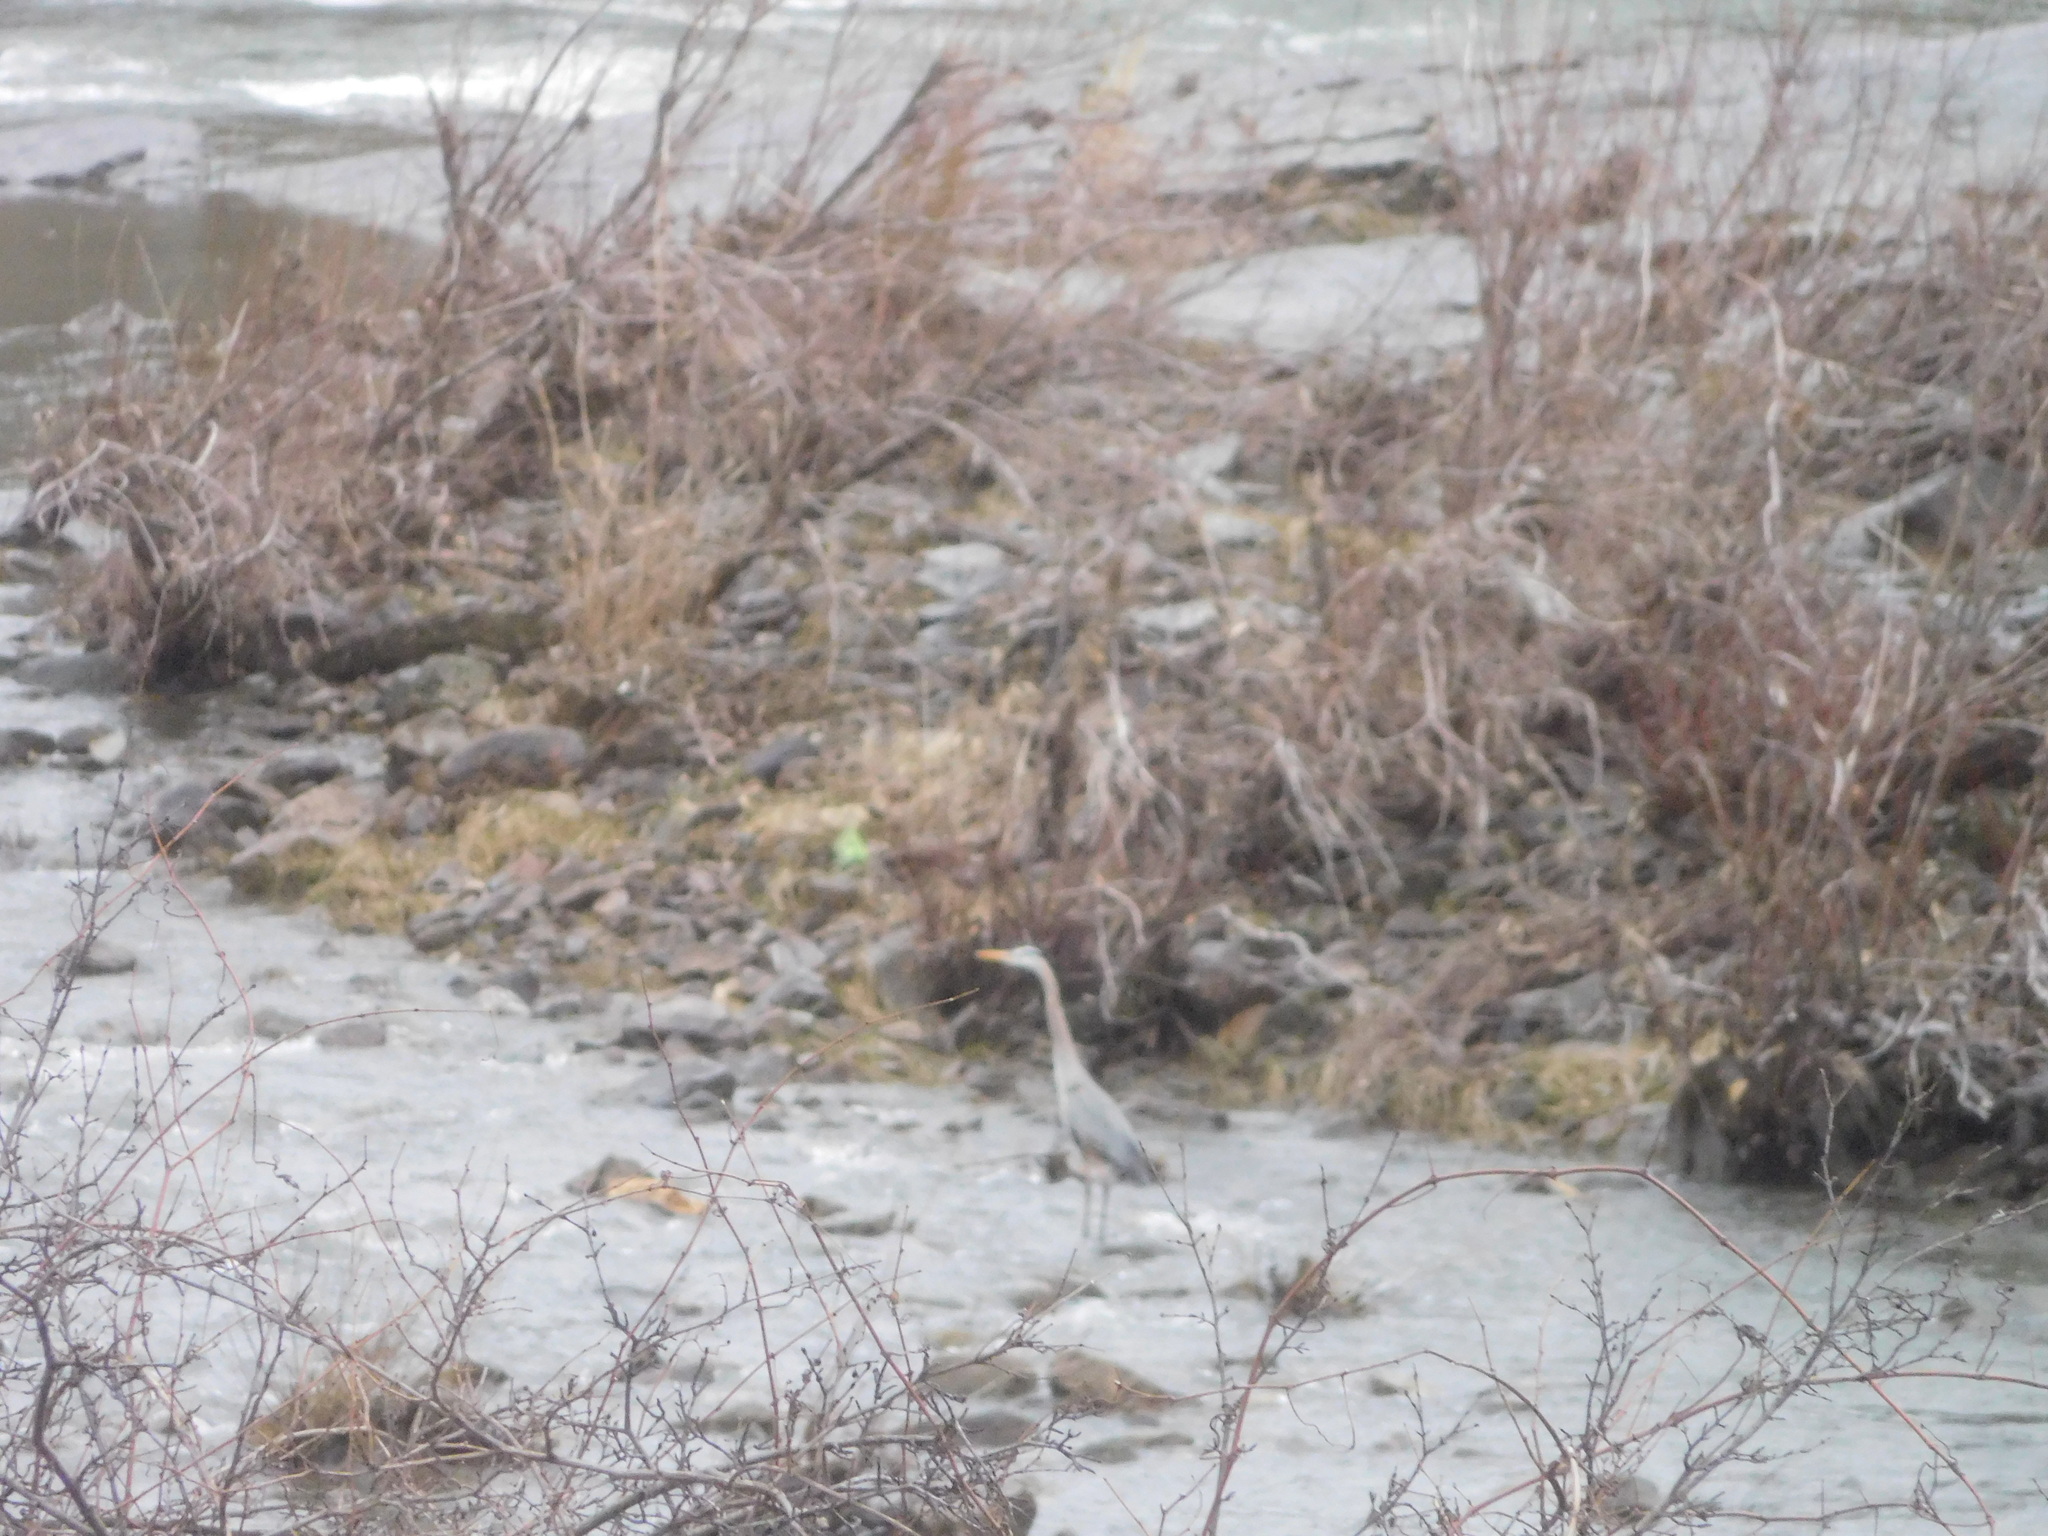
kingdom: Animalia
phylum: Chordata
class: Aves
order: Pelecaniformes
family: Ardeidae
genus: Ardea
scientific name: Ardea herodias
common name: Great blue heron
